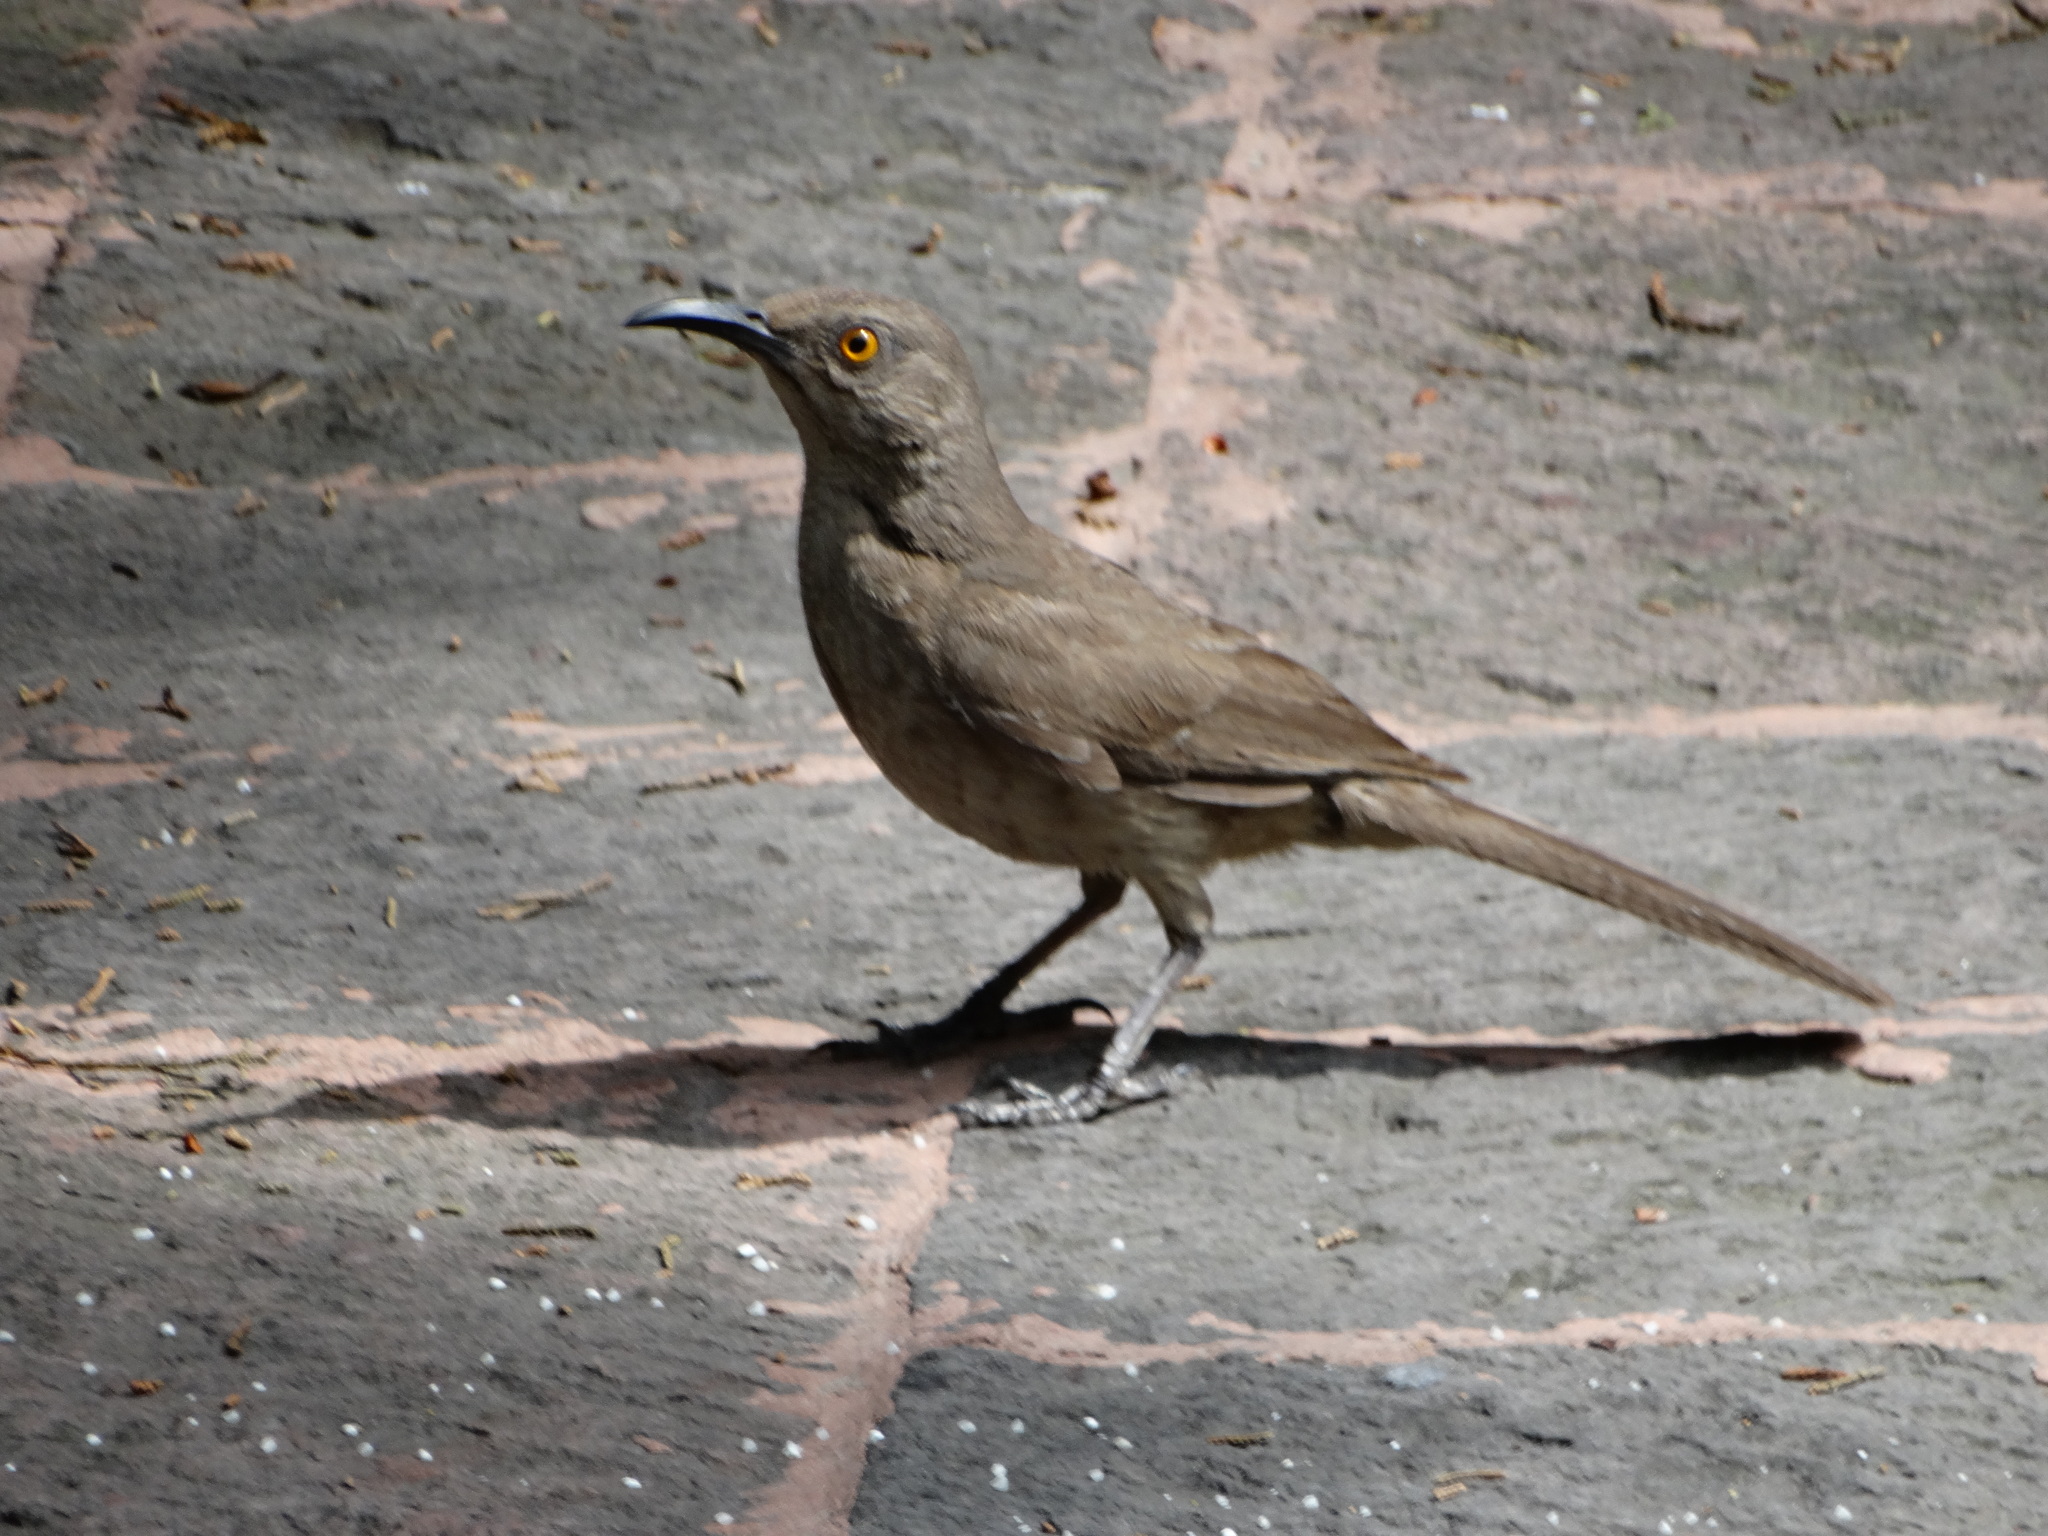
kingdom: Animalia
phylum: Chordata
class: Aves
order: Passeriformes
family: Mimidae
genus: Toxostoma
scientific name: Toxostoma curvirostre
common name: Curve-billed thrasher
